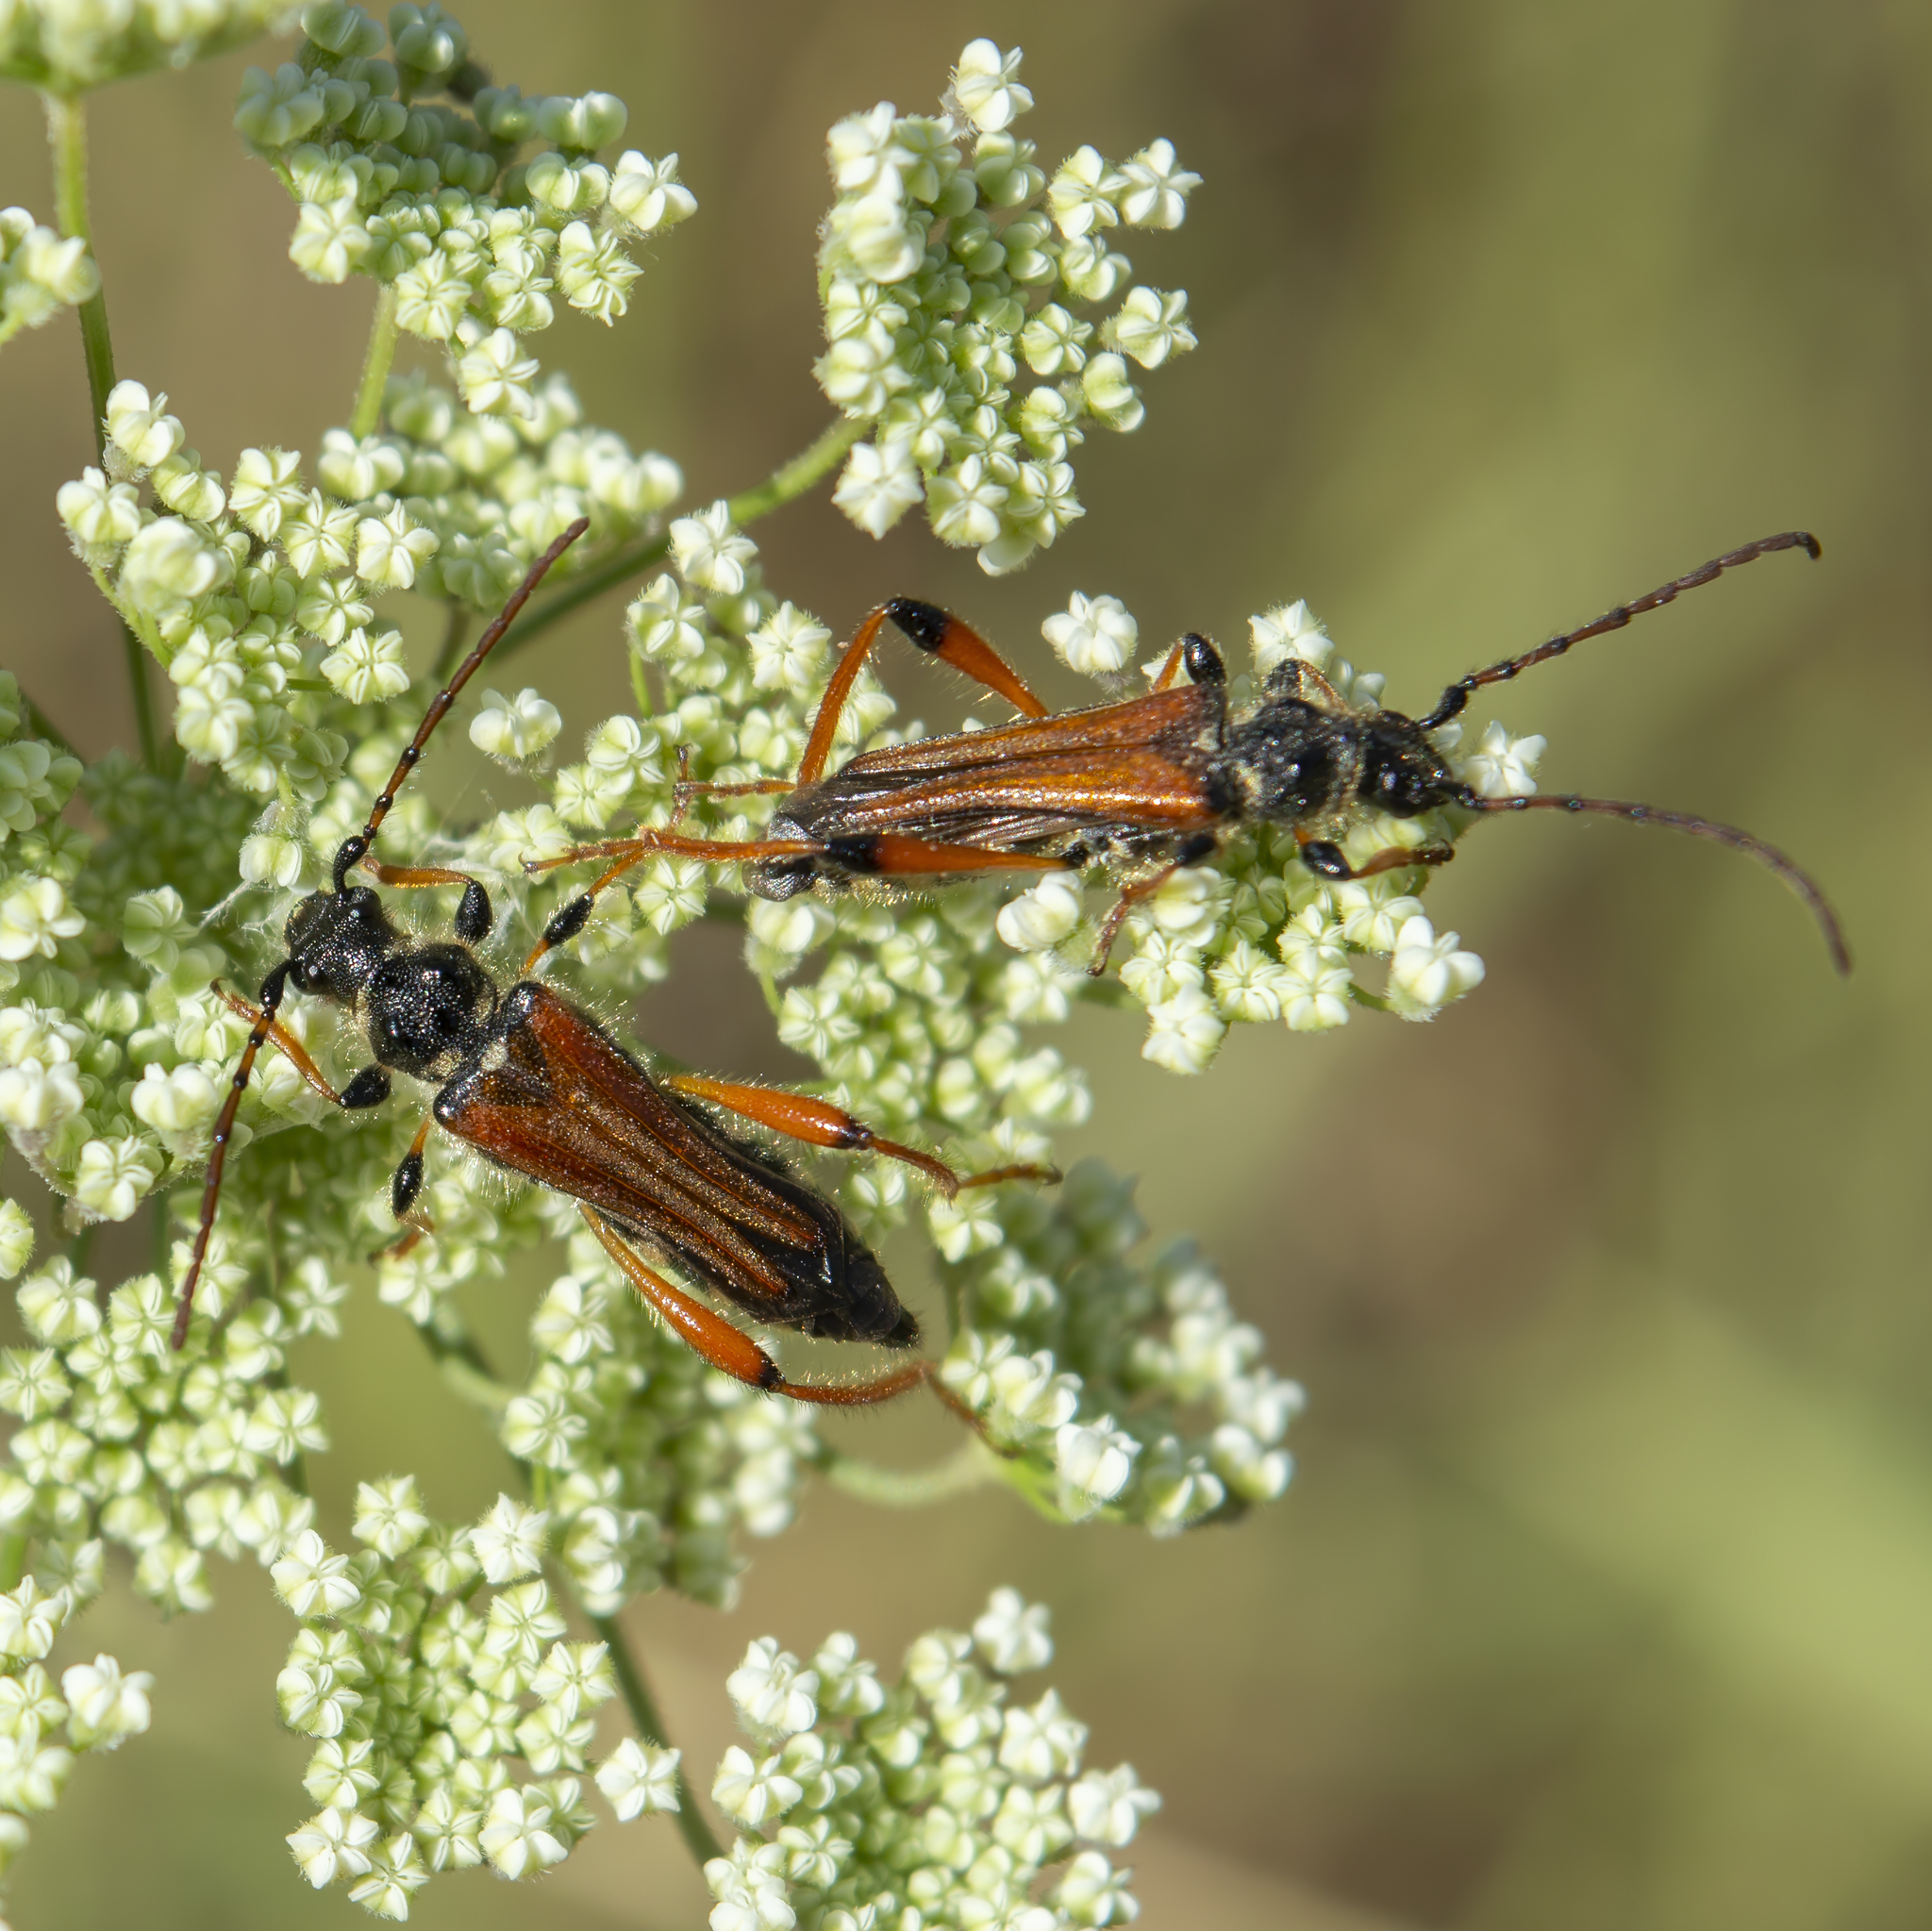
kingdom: Animalia
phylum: Arthropoda
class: Insecta
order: Coleoptera
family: Cerambycidae
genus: Stenopterus
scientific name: Stenopterus rufus
